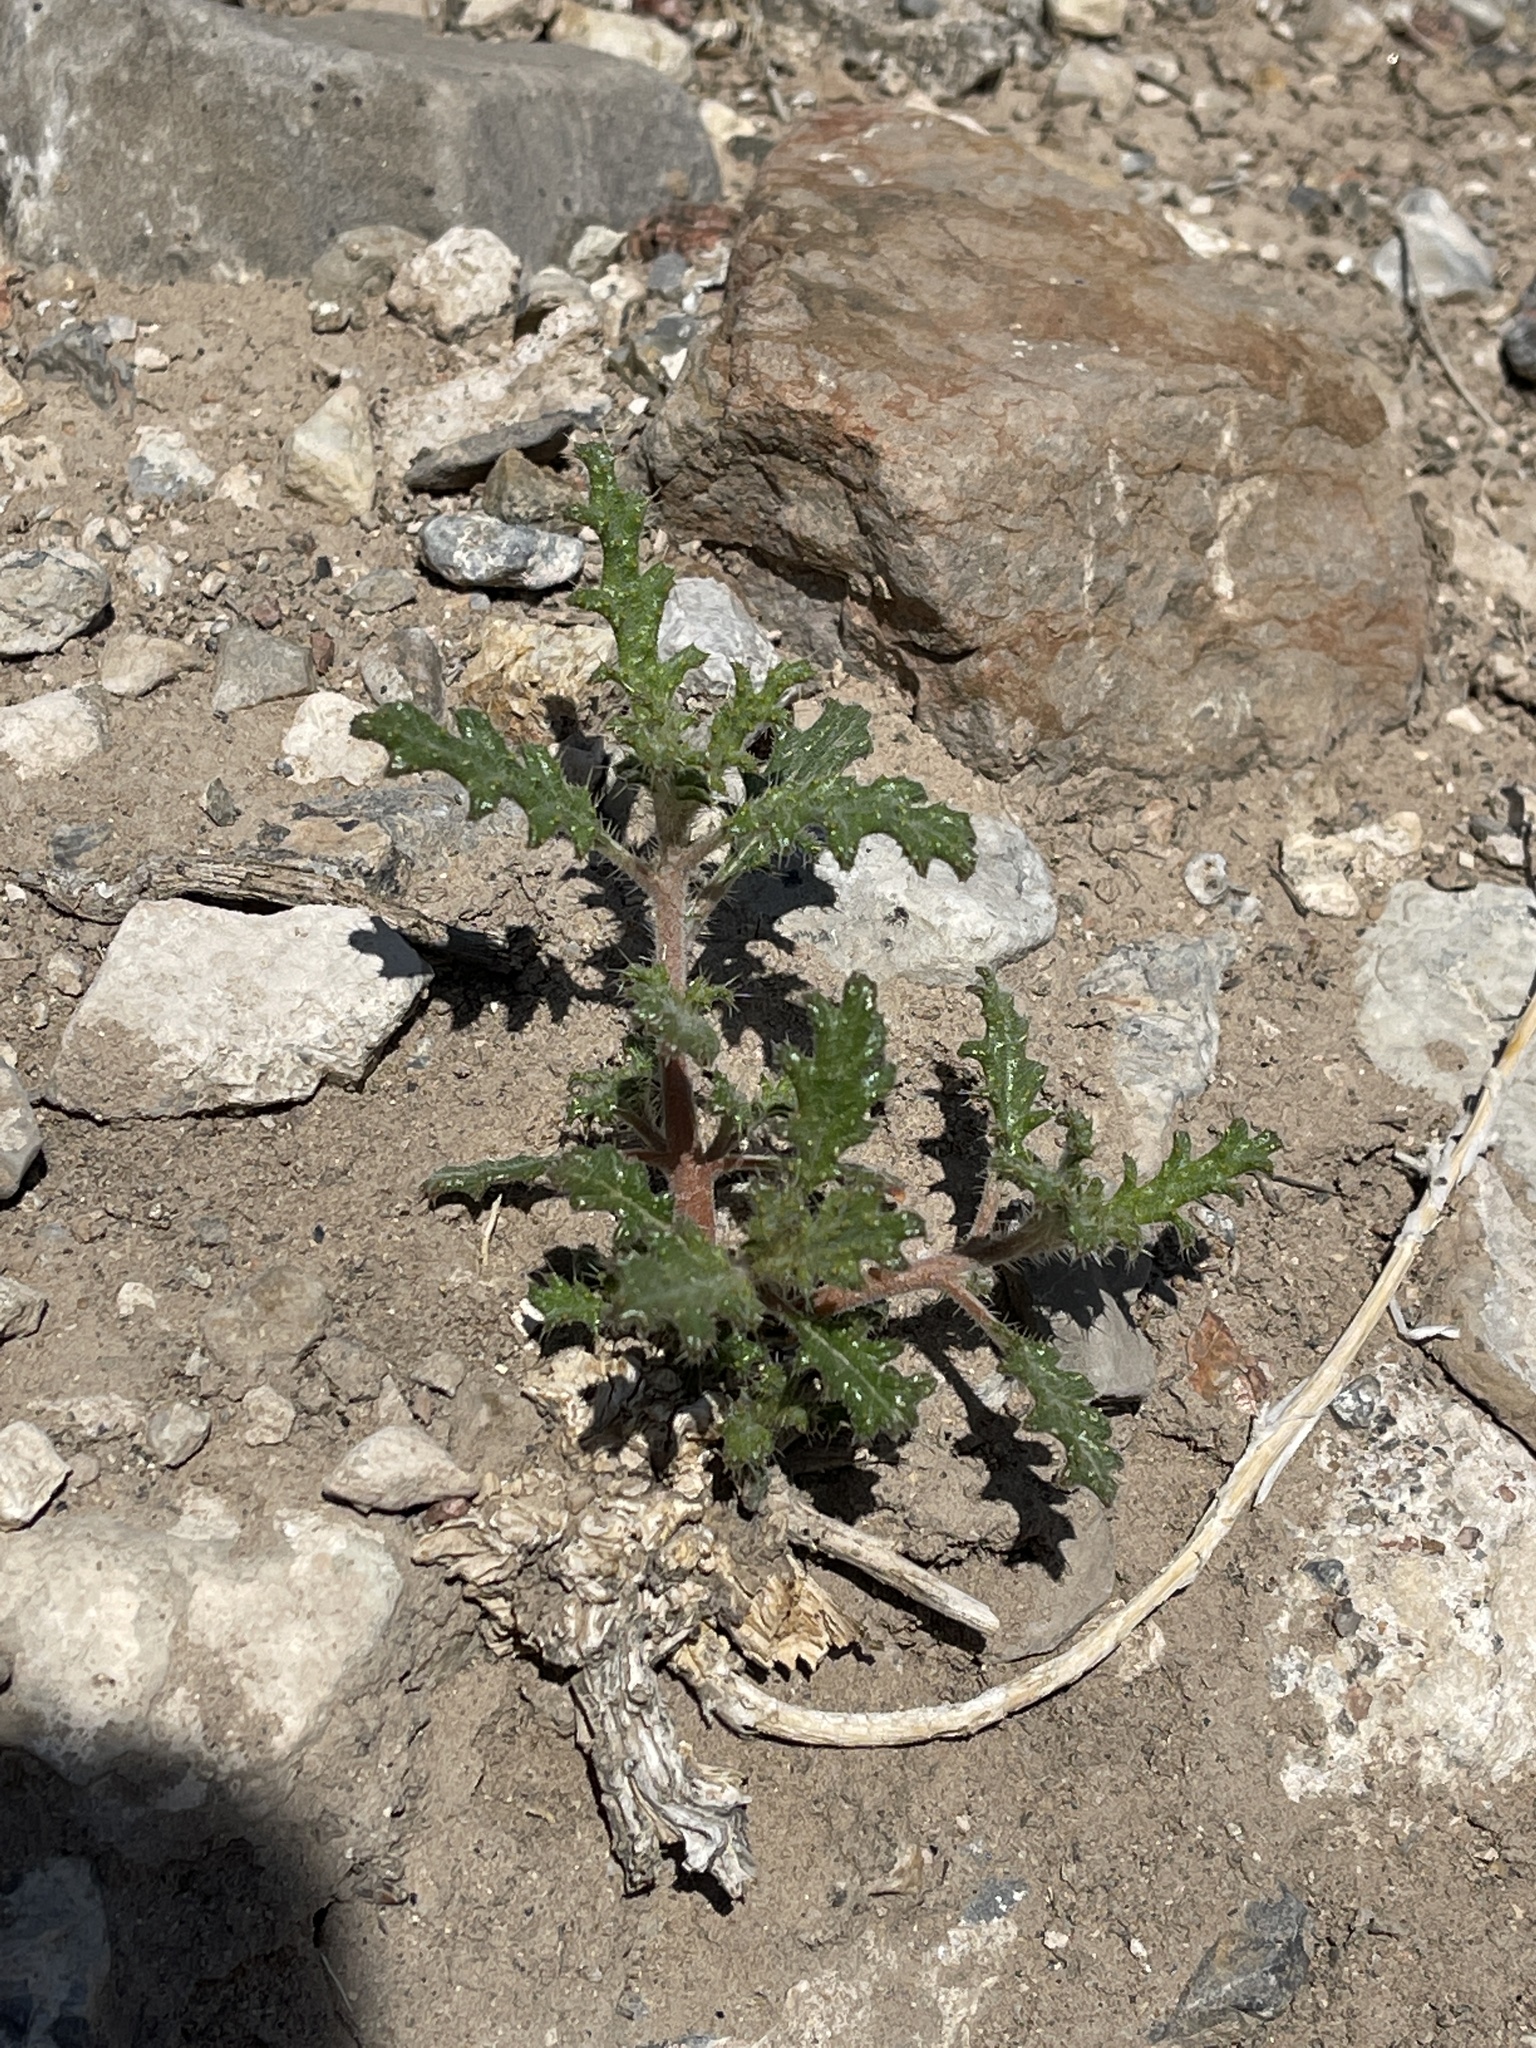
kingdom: Plantae
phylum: Tracheophyta
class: Magnoliopsida
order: Cornales
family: Loasaceae
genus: Cevallia
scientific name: Cevallia sinuata
